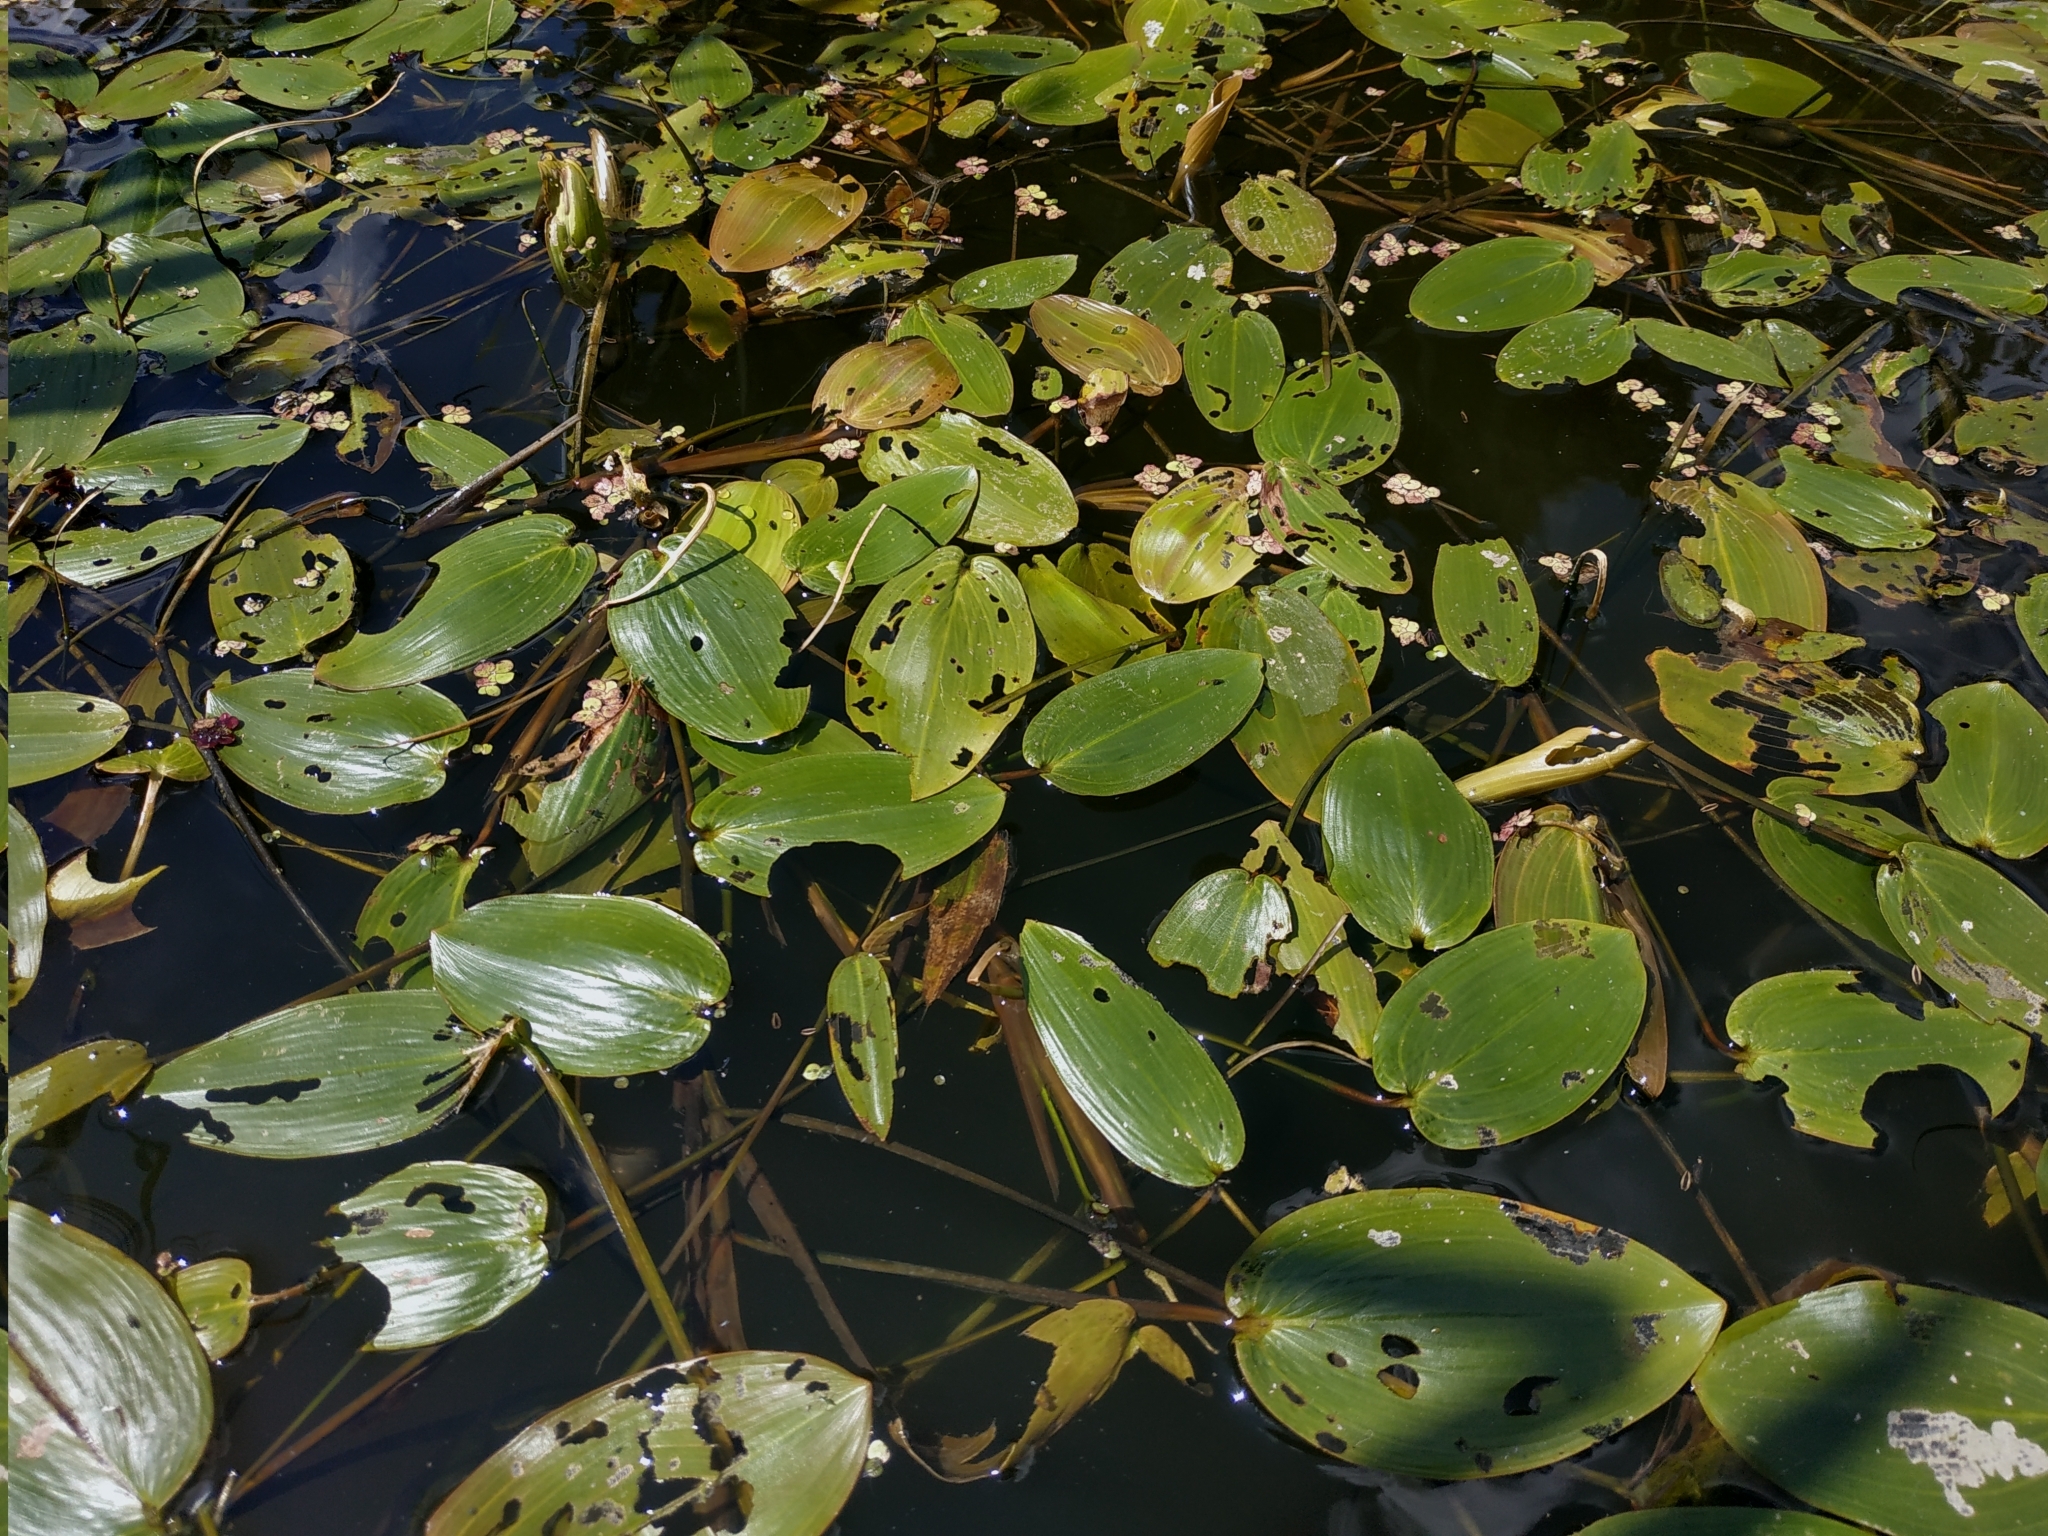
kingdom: Plantae
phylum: Tracheophyta
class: Liliopsida
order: Alismatales
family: Potamogetonaceae
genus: Potamogeton
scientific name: Potamogeton natans
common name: Broad-leaved pondweed
